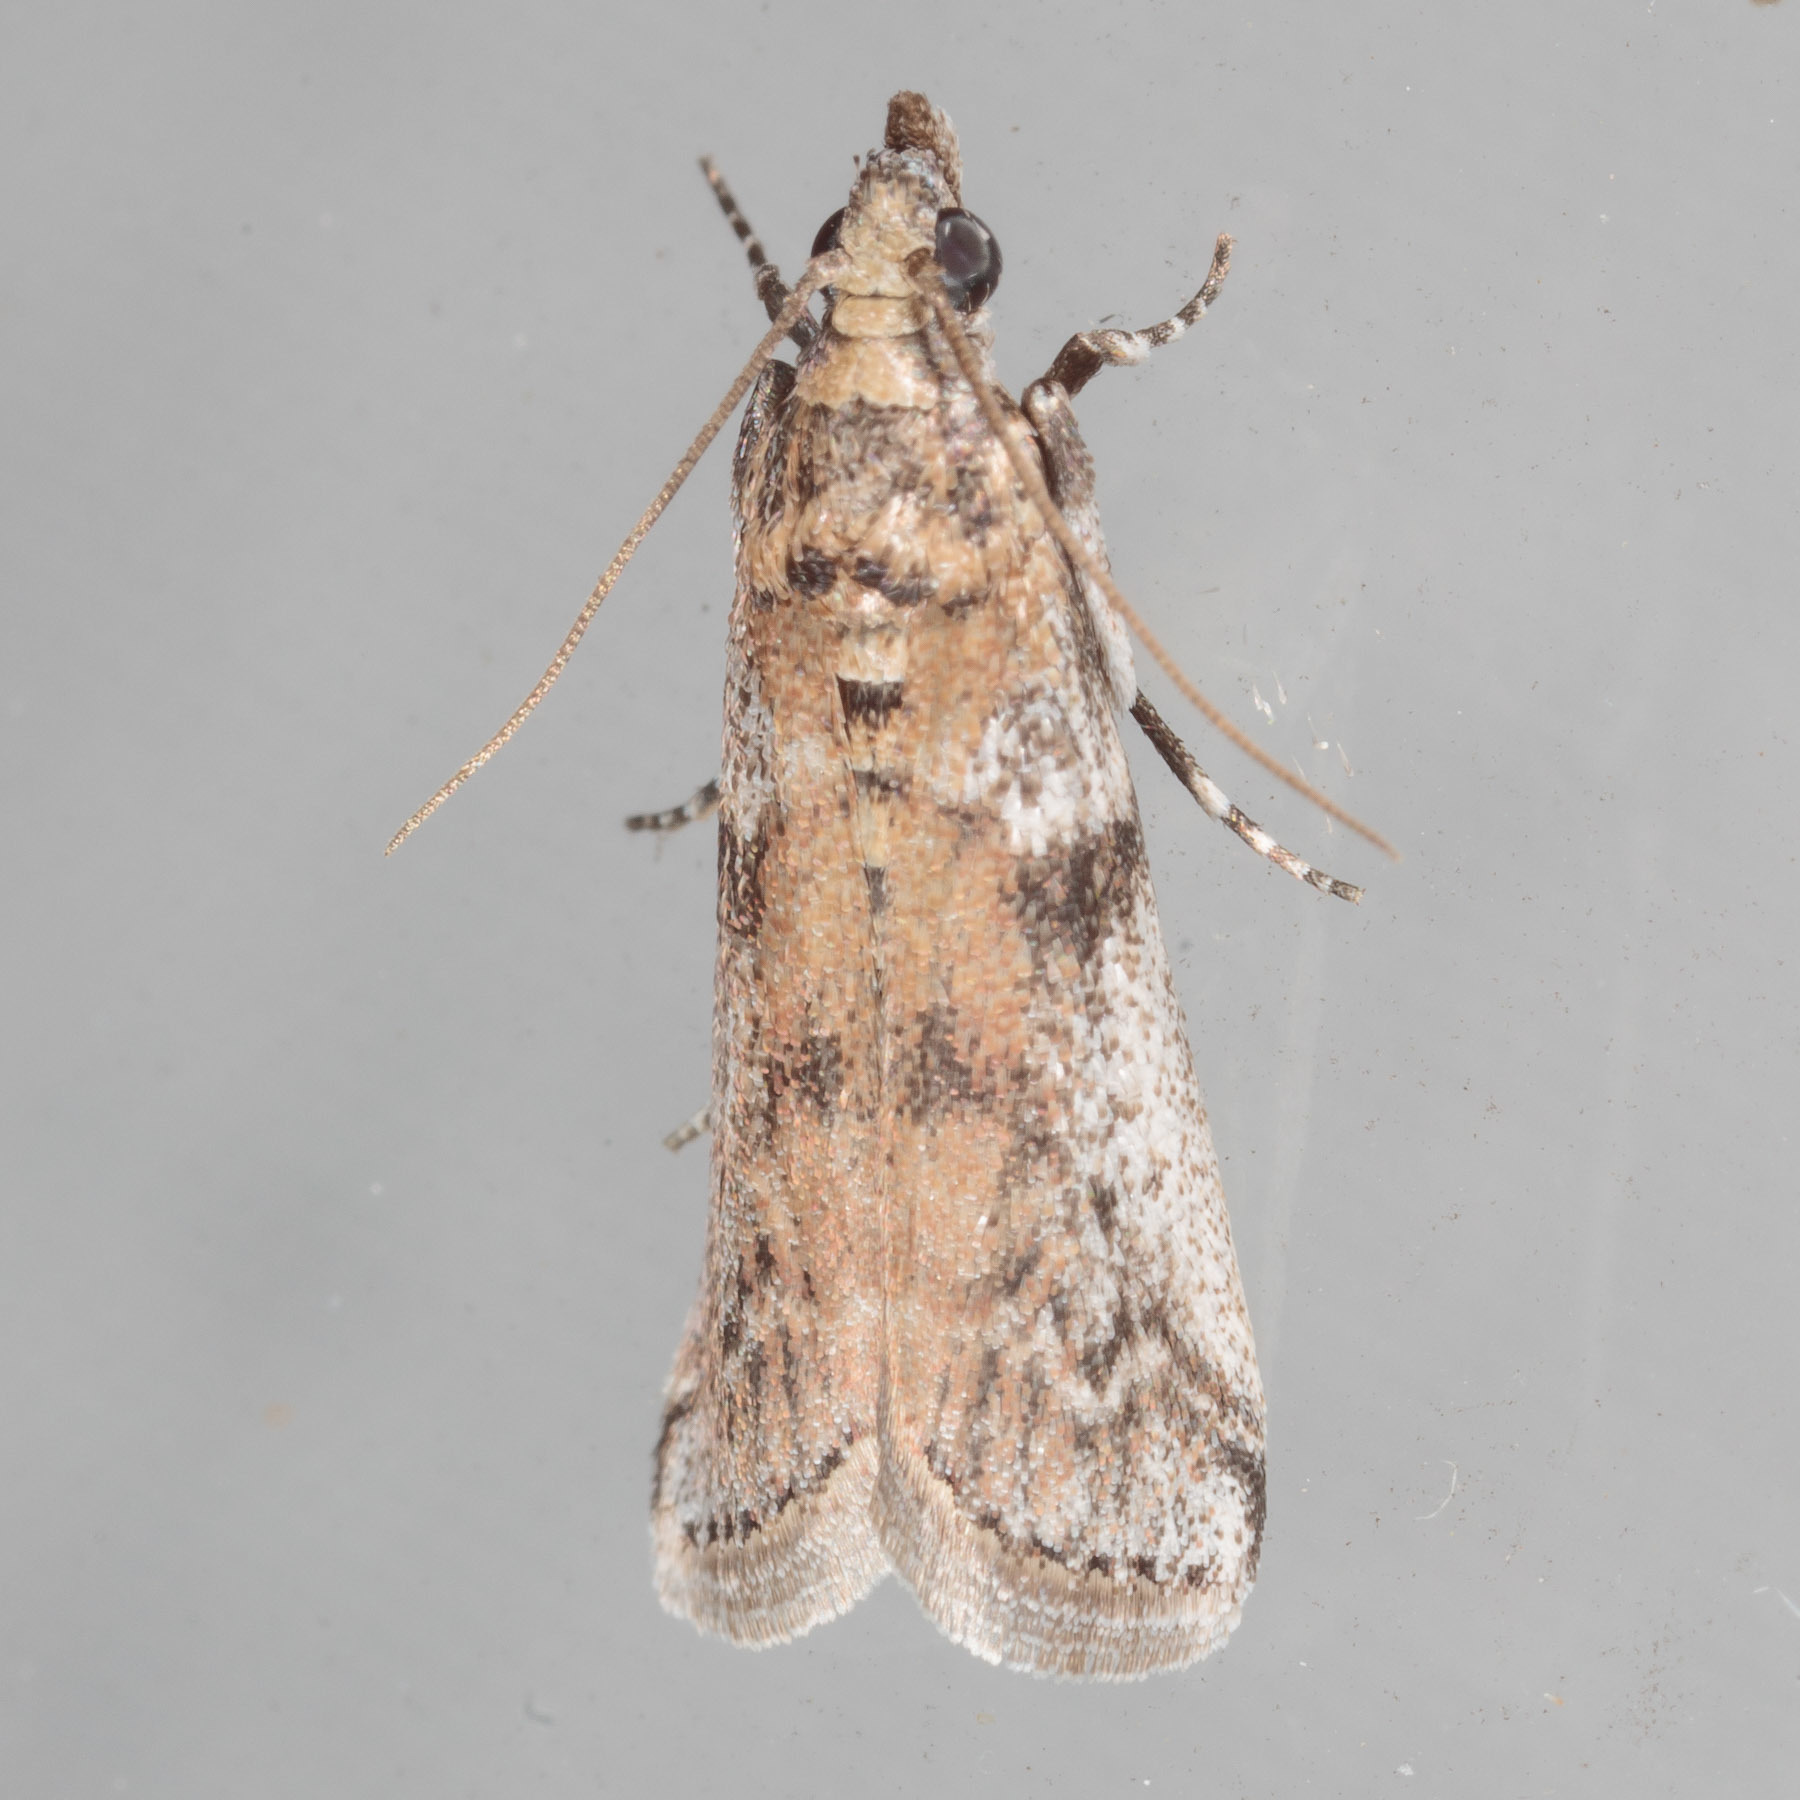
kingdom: Animalia
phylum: Arthropoda
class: Insecta
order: Lepidoptera
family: Pyralidae
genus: Laetilia
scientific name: Laetilia coccidivora
